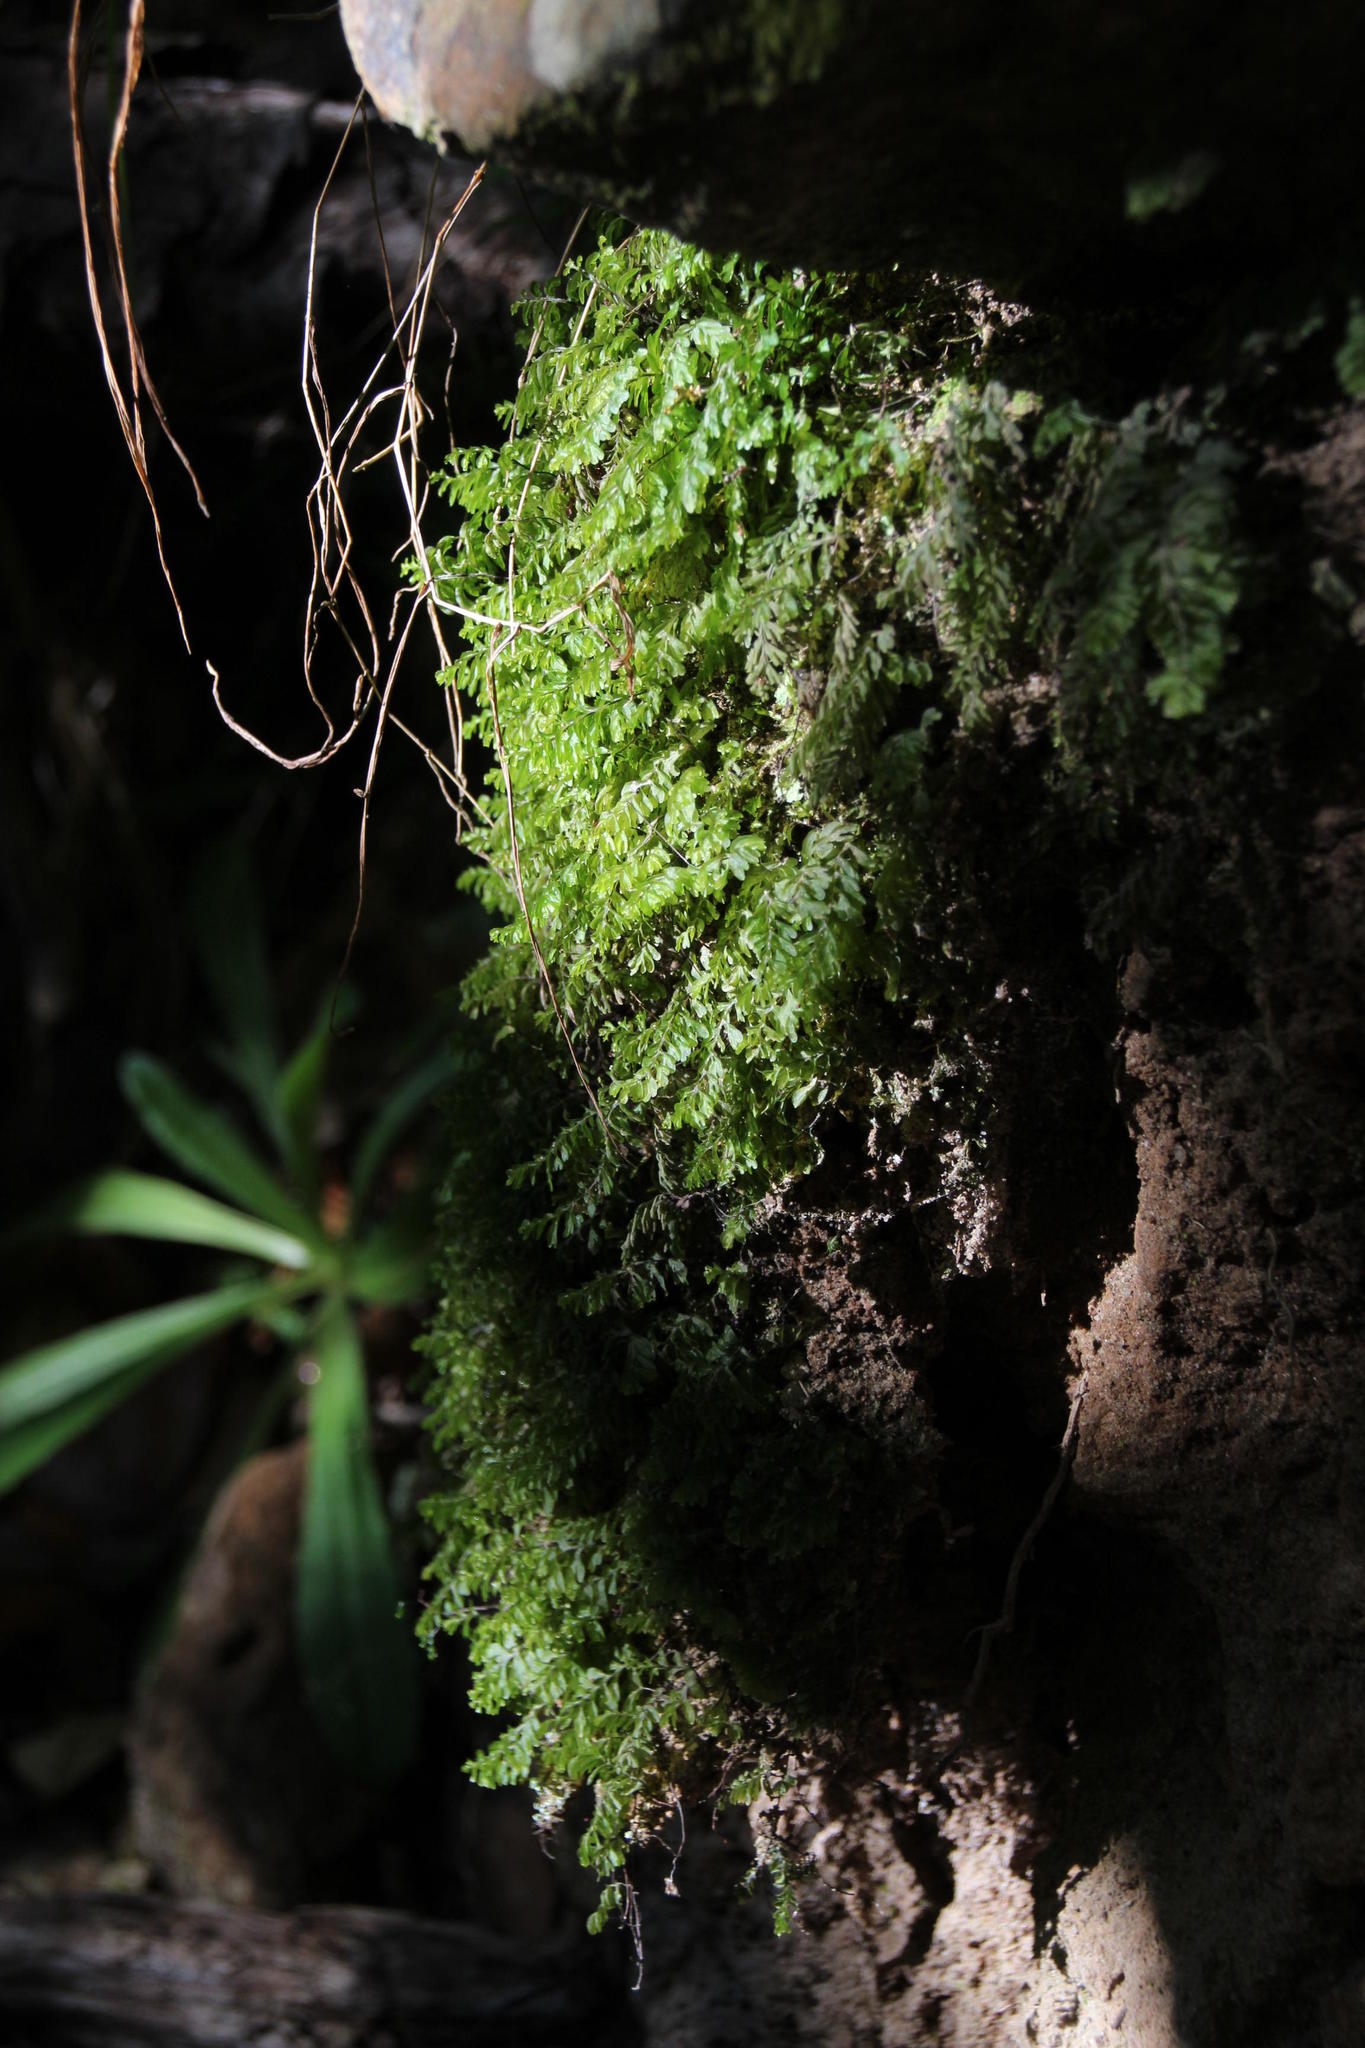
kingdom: Plantae
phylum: Tracheophyta
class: Polypodiopsida
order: Hymenophyllales
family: Hymenophyllaceae
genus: Hymenophyllum
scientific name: Hymenophyllum capense
